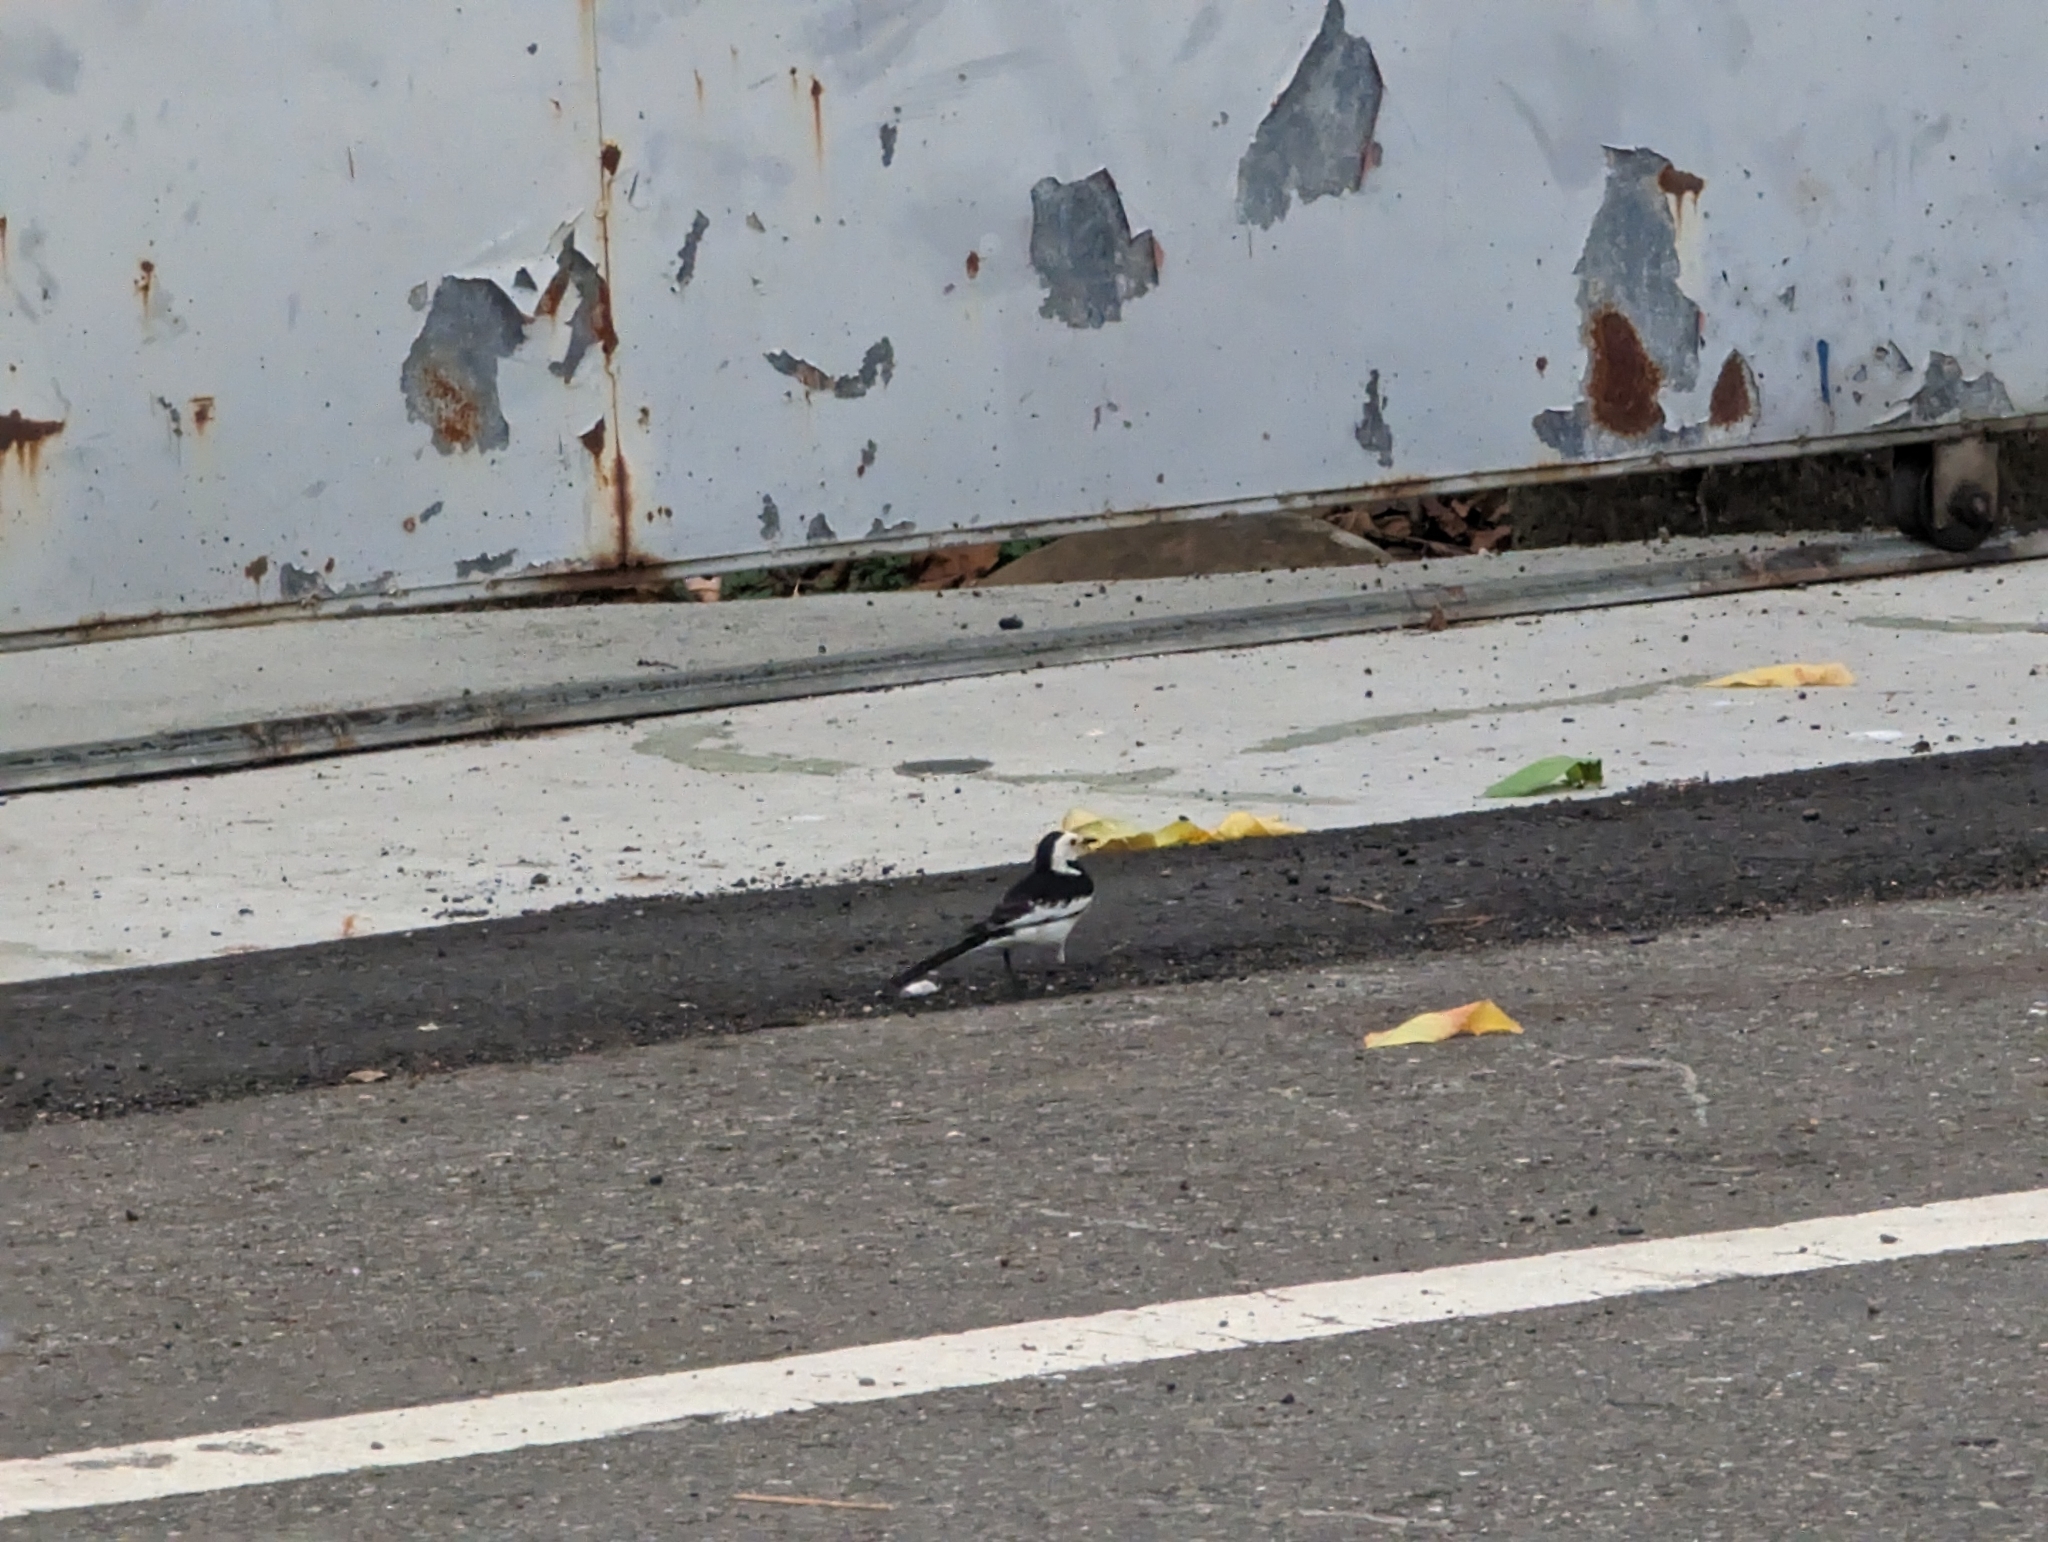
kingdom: Animalia
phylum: Chordata
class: Aves
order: Passeriformes
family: Motacillidae
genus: Motacilla
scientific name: Motacilla alba
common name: White wagtail
